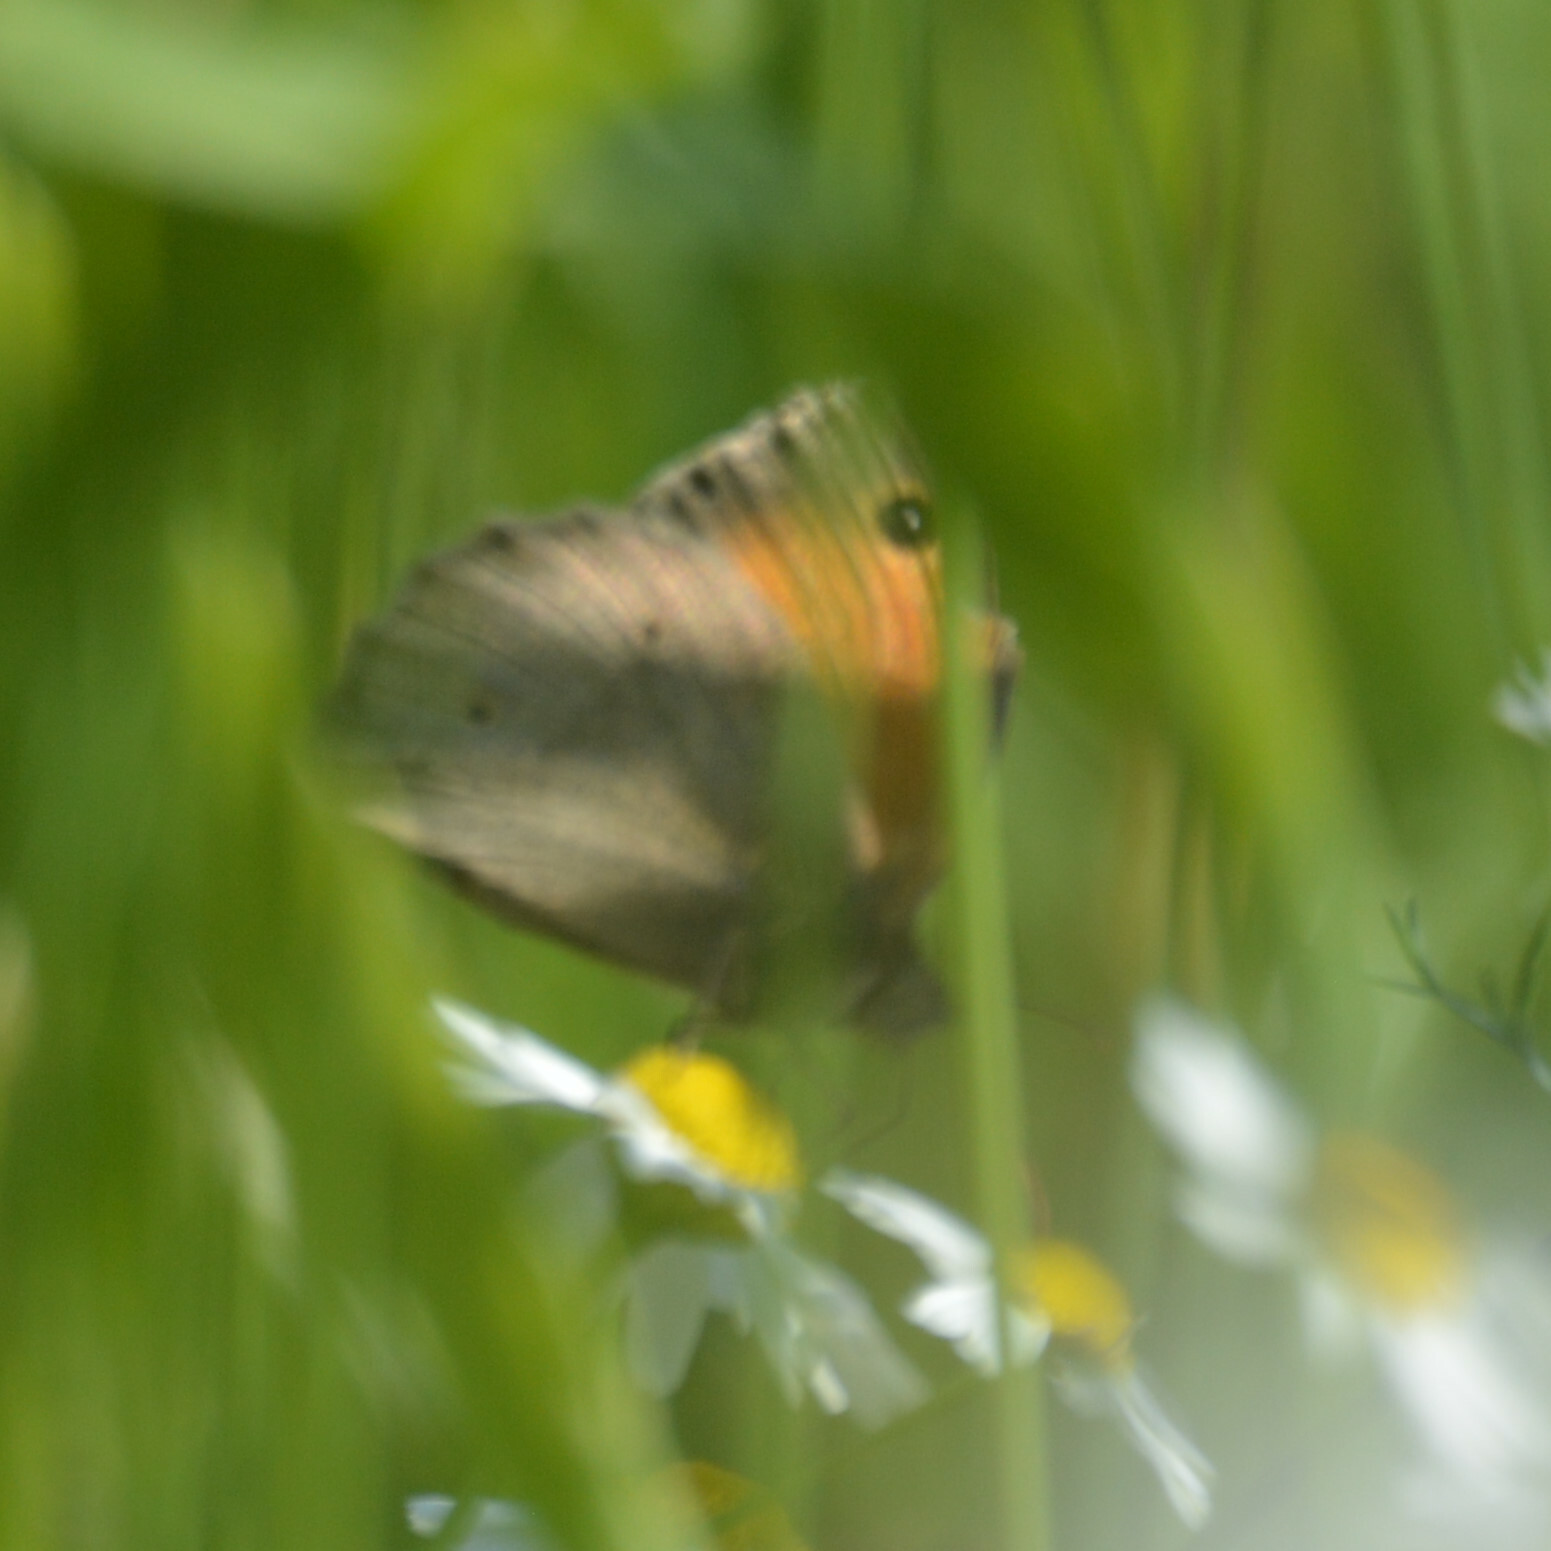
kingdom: Animalia
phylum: Arthropoda
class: Insecta
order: Lepidoptera
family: Nymphalidae
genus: Maniola
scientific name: Maniola jurtina
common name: Meadow brown
